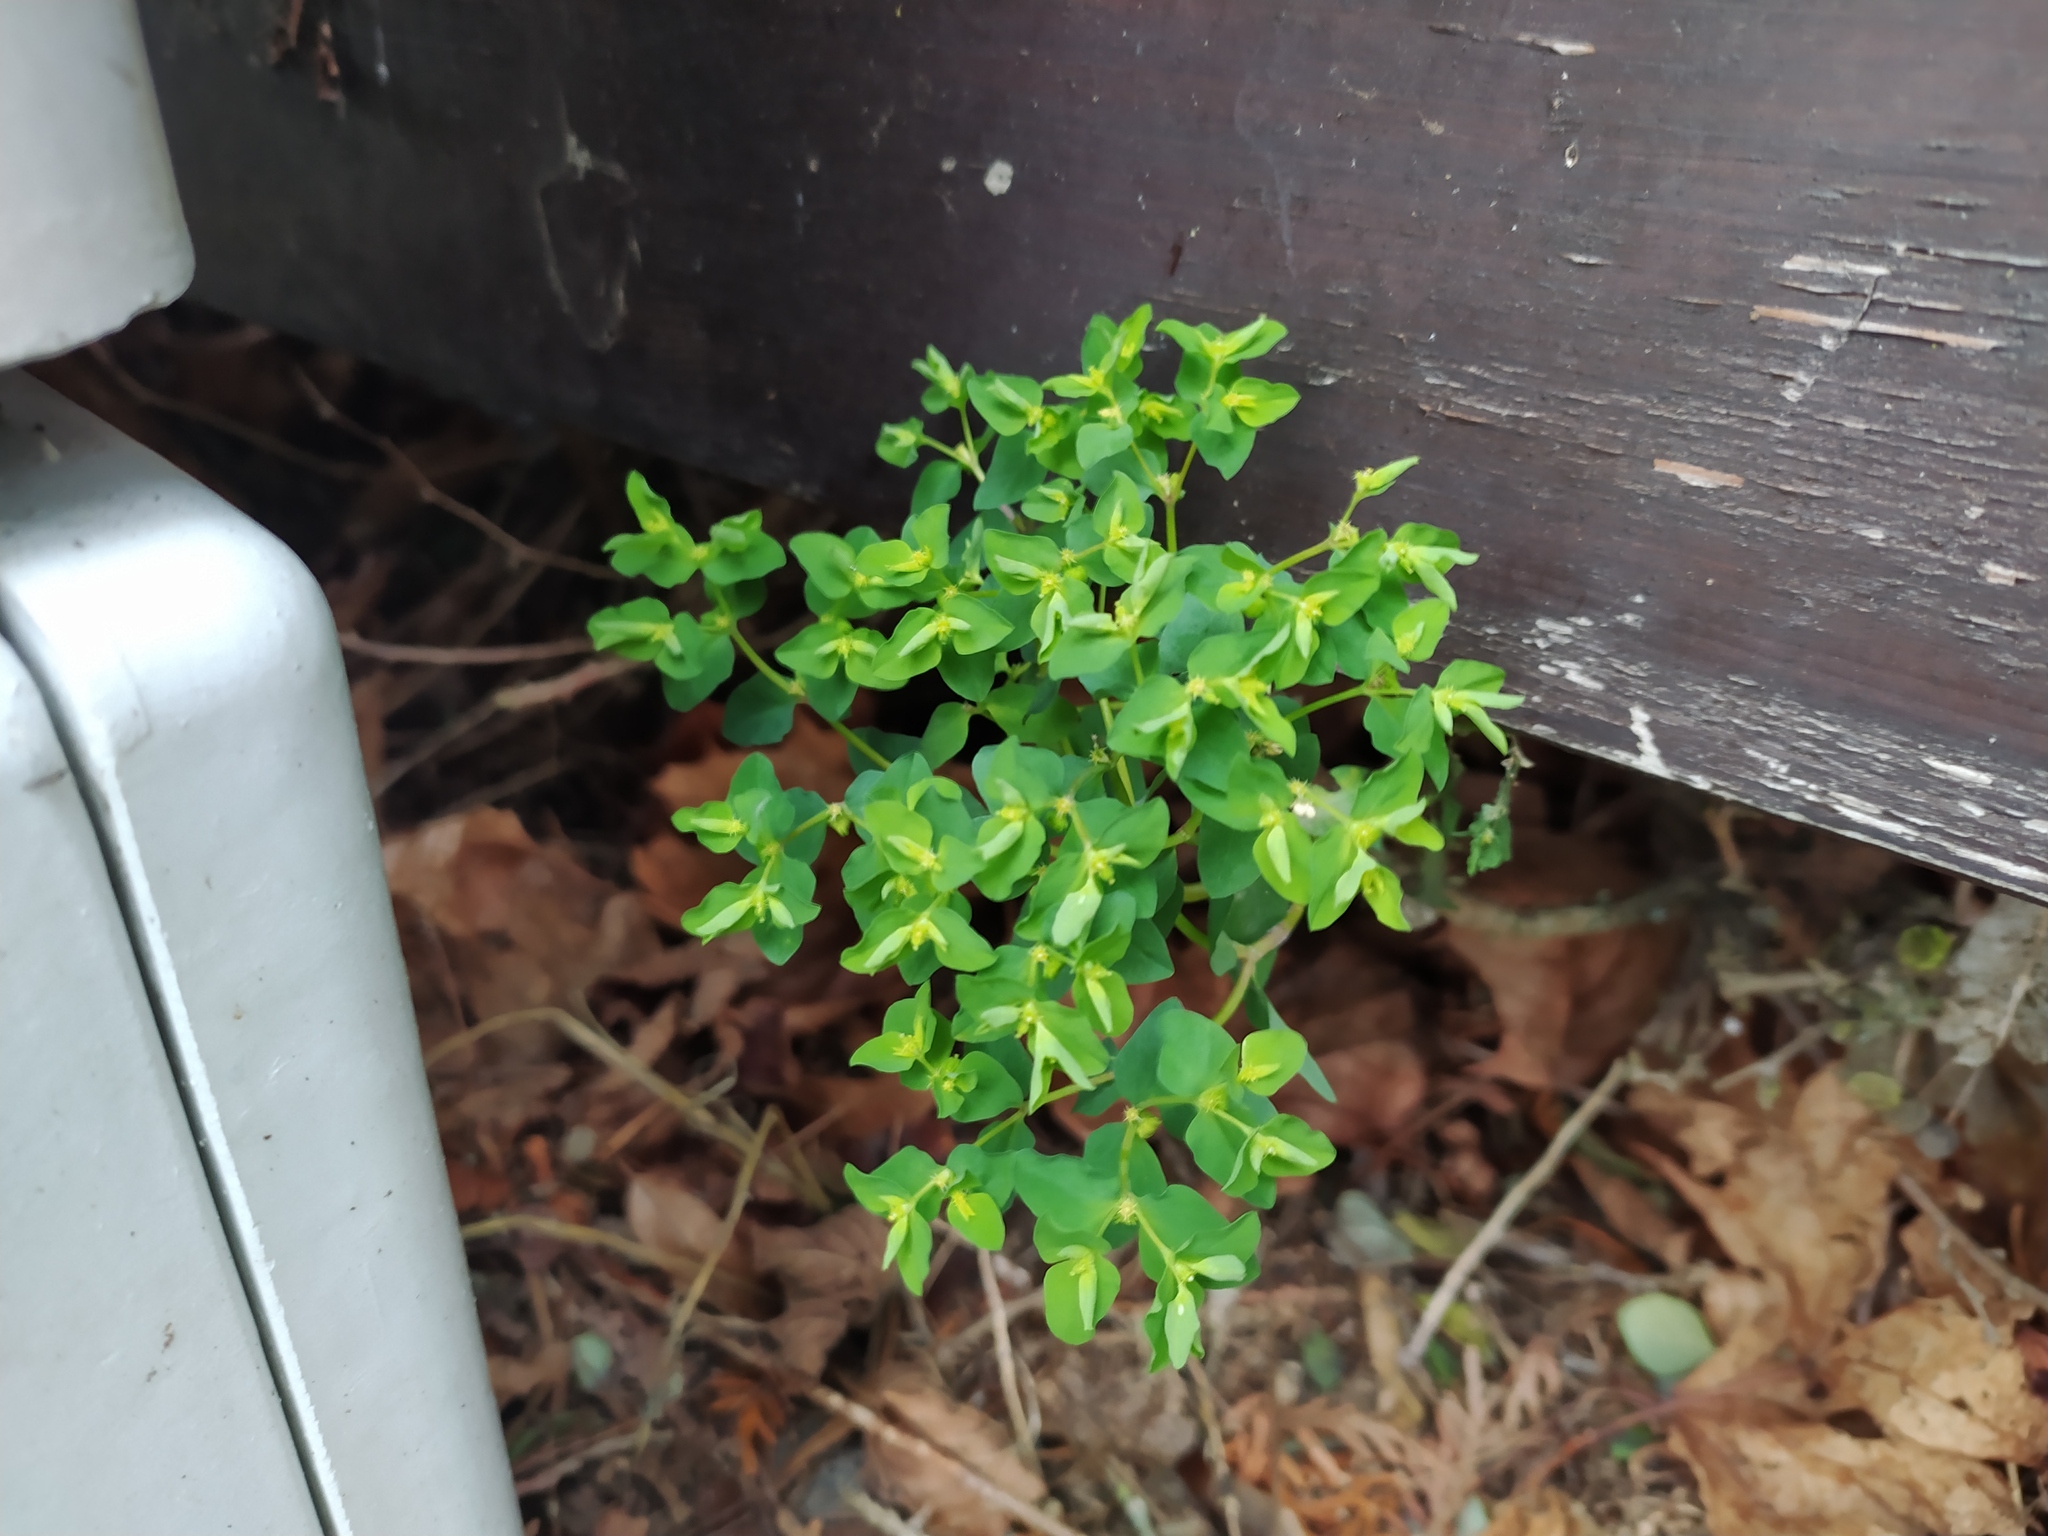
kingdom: Plantae
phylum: Tracheophyta
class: Magnoliopsida
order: Malpighiales
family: Euphorbiaceae
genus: Euphorbia
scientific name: Euphorbia peplus
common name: Petty spurge
